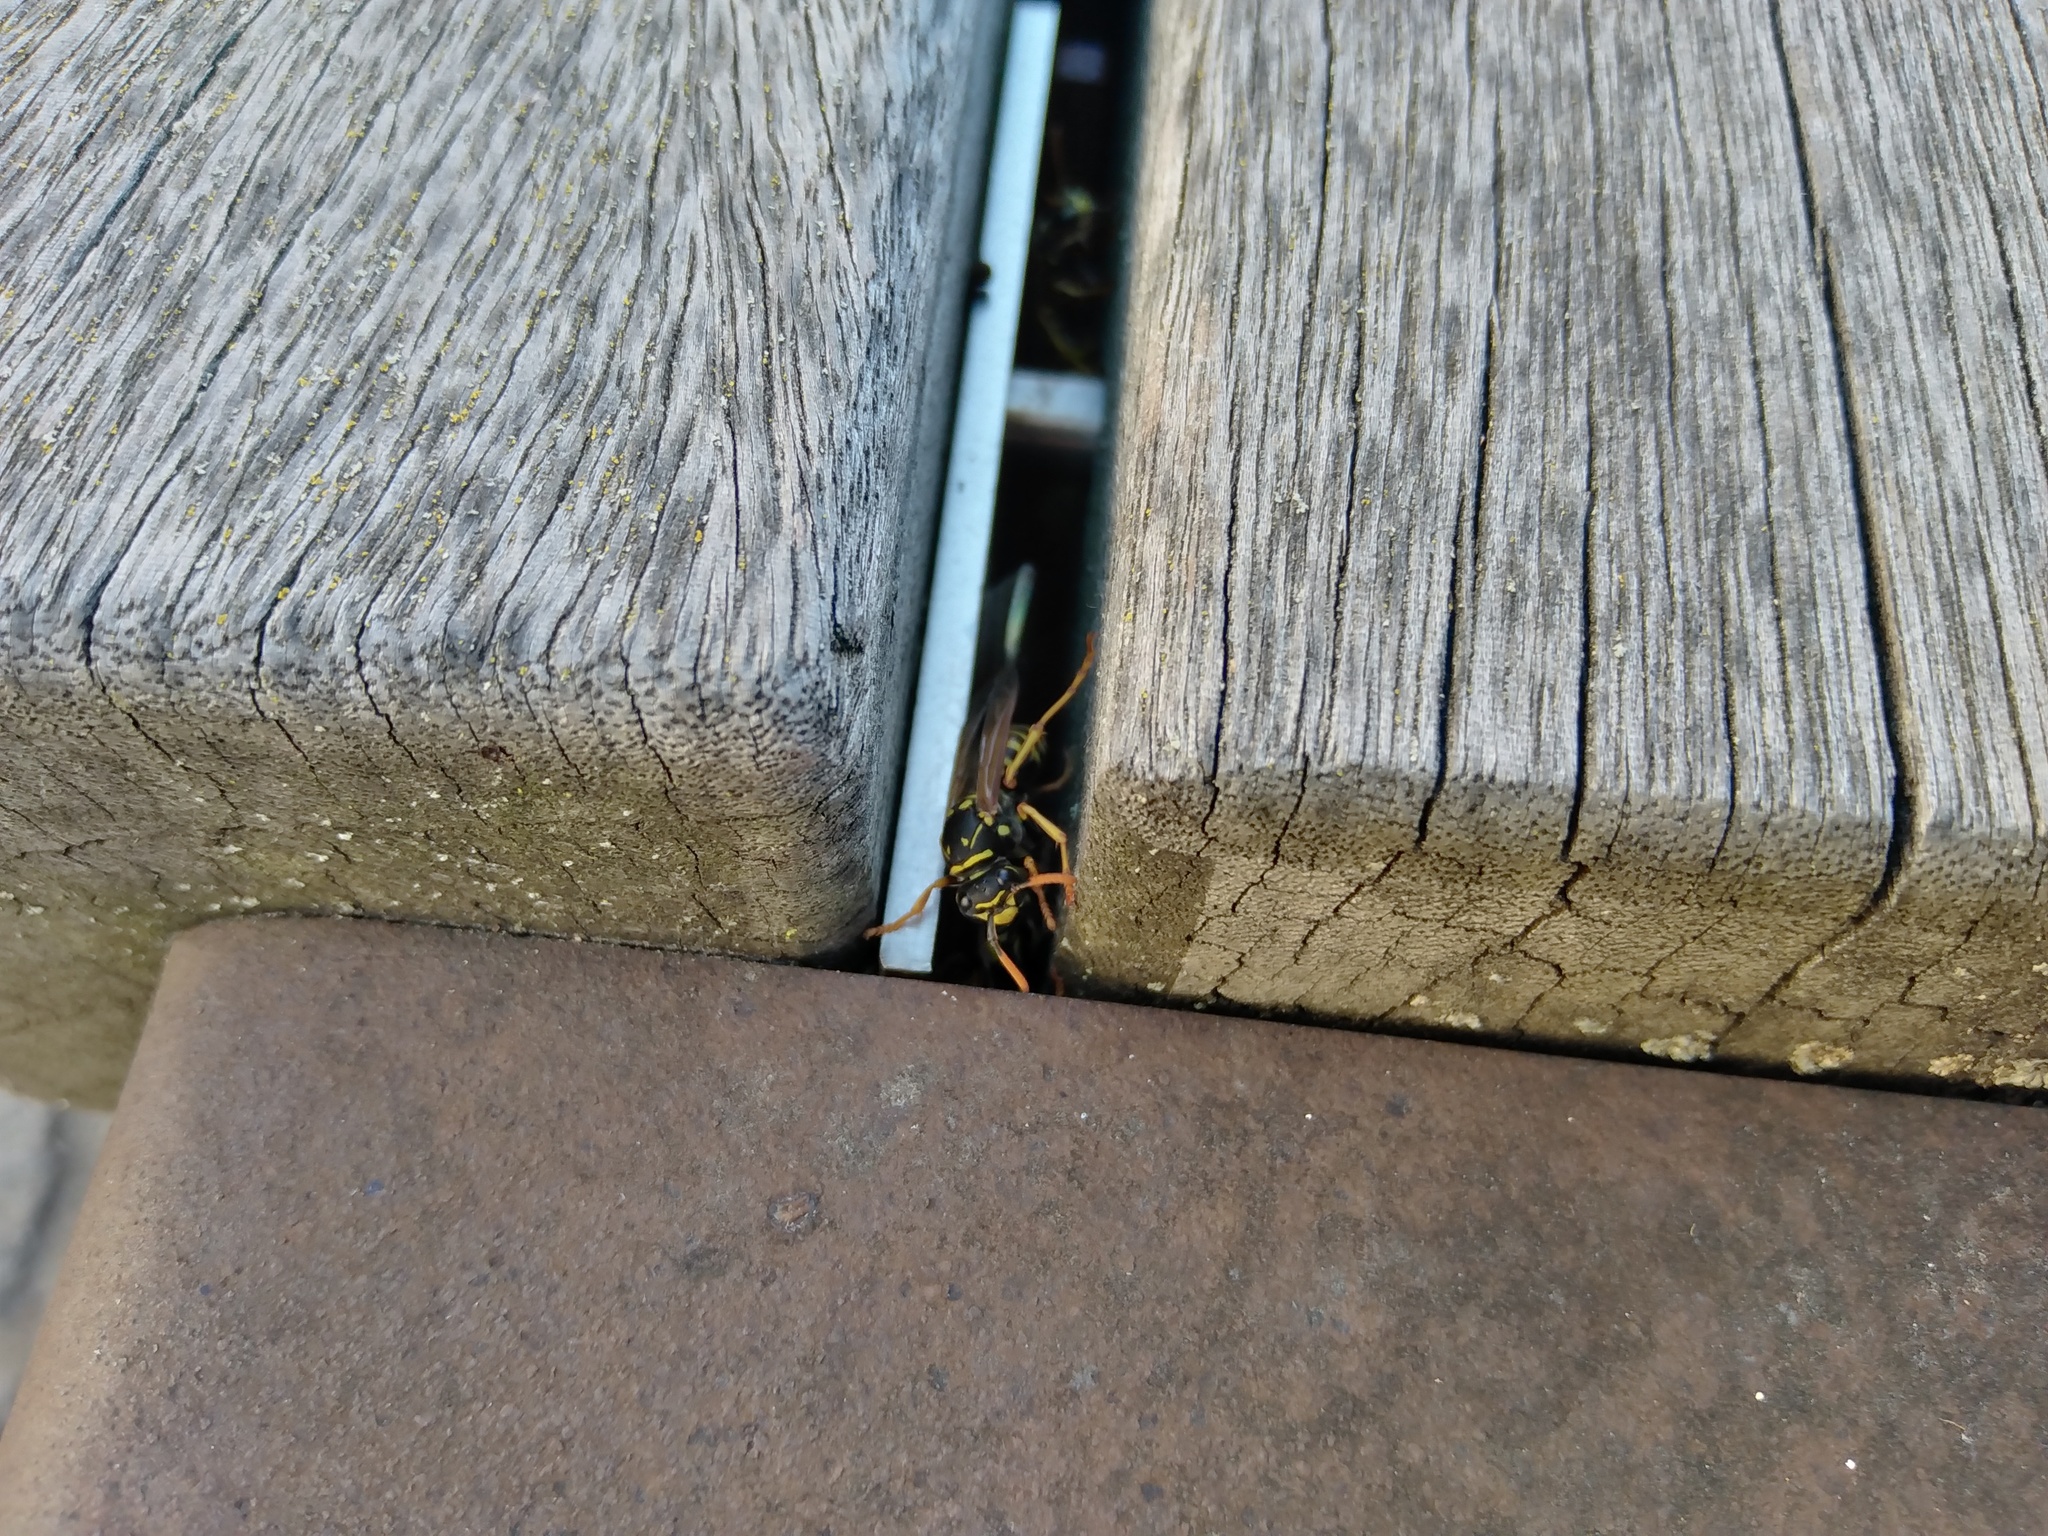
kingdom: Animalia
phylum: Arthropoda
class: Insecta
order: Hymenoptera
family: Eumenidae
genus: Polistes
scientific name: Polistes dominula
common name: Paper wasp
